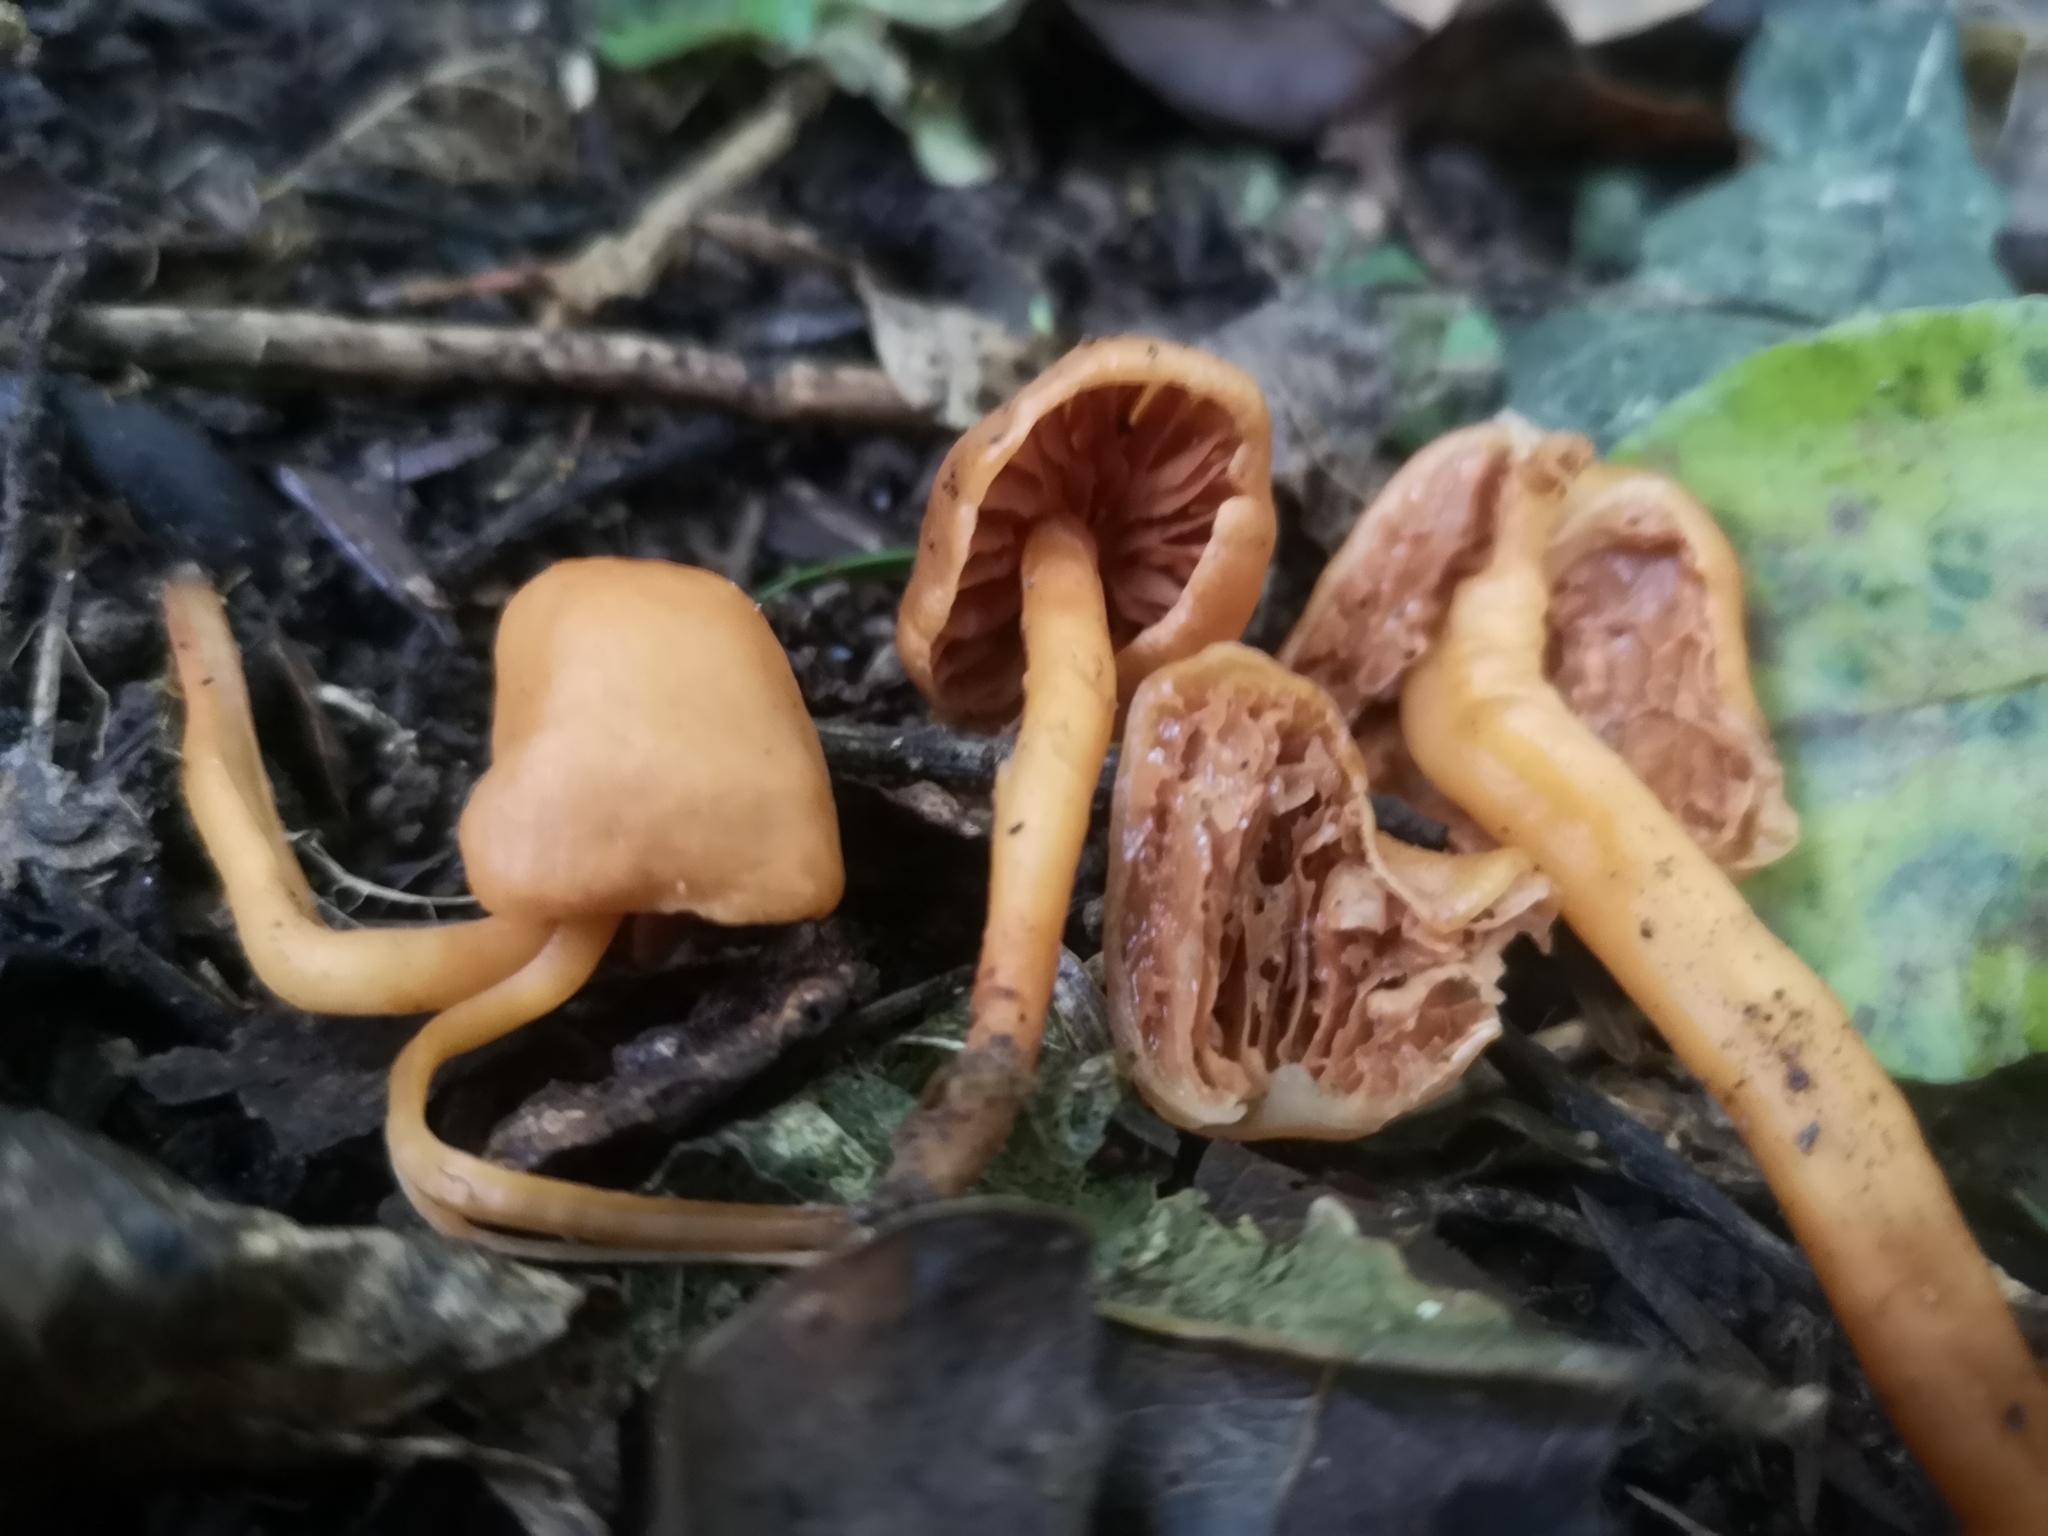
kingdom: Fungi
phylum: Basidiomycota
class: Agaricomycetes
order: Agaricales
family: Macrocystidiaceae
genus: Macrocystidia
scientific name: Macrocystidia reducta
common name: The fishy pouch
